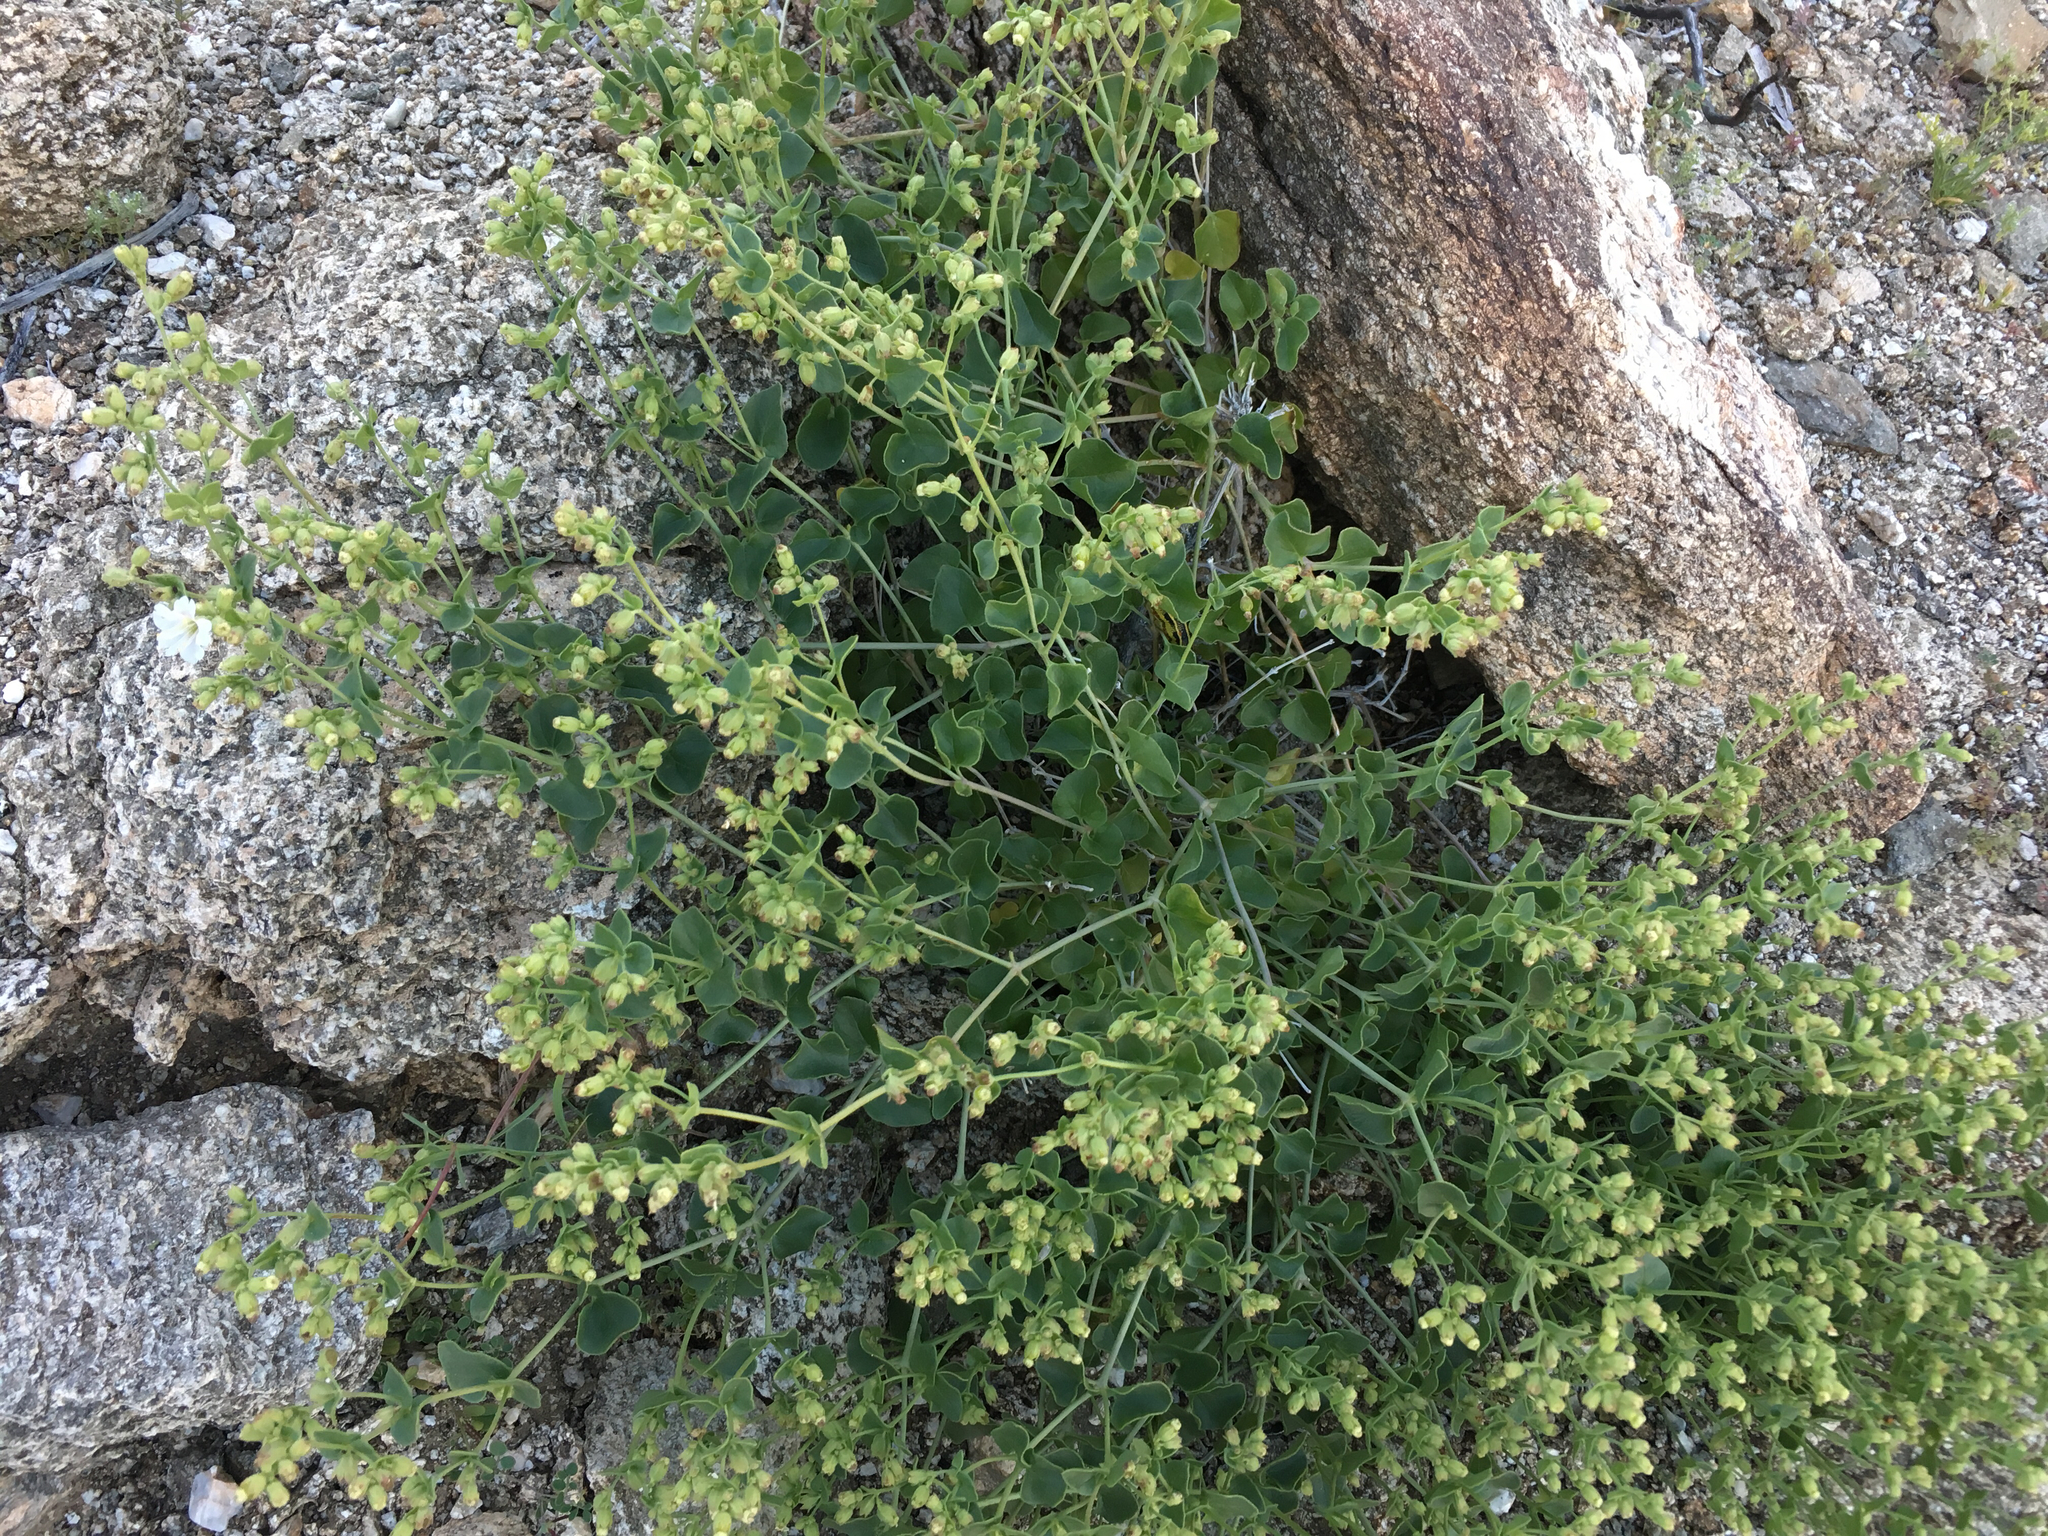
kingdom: Plantae
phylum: Tracheophyta
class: Magnoliopsida
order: Caryophyllales
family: Nyctaginaceae
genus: Mirabilis
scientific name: Mirabilis laevis
